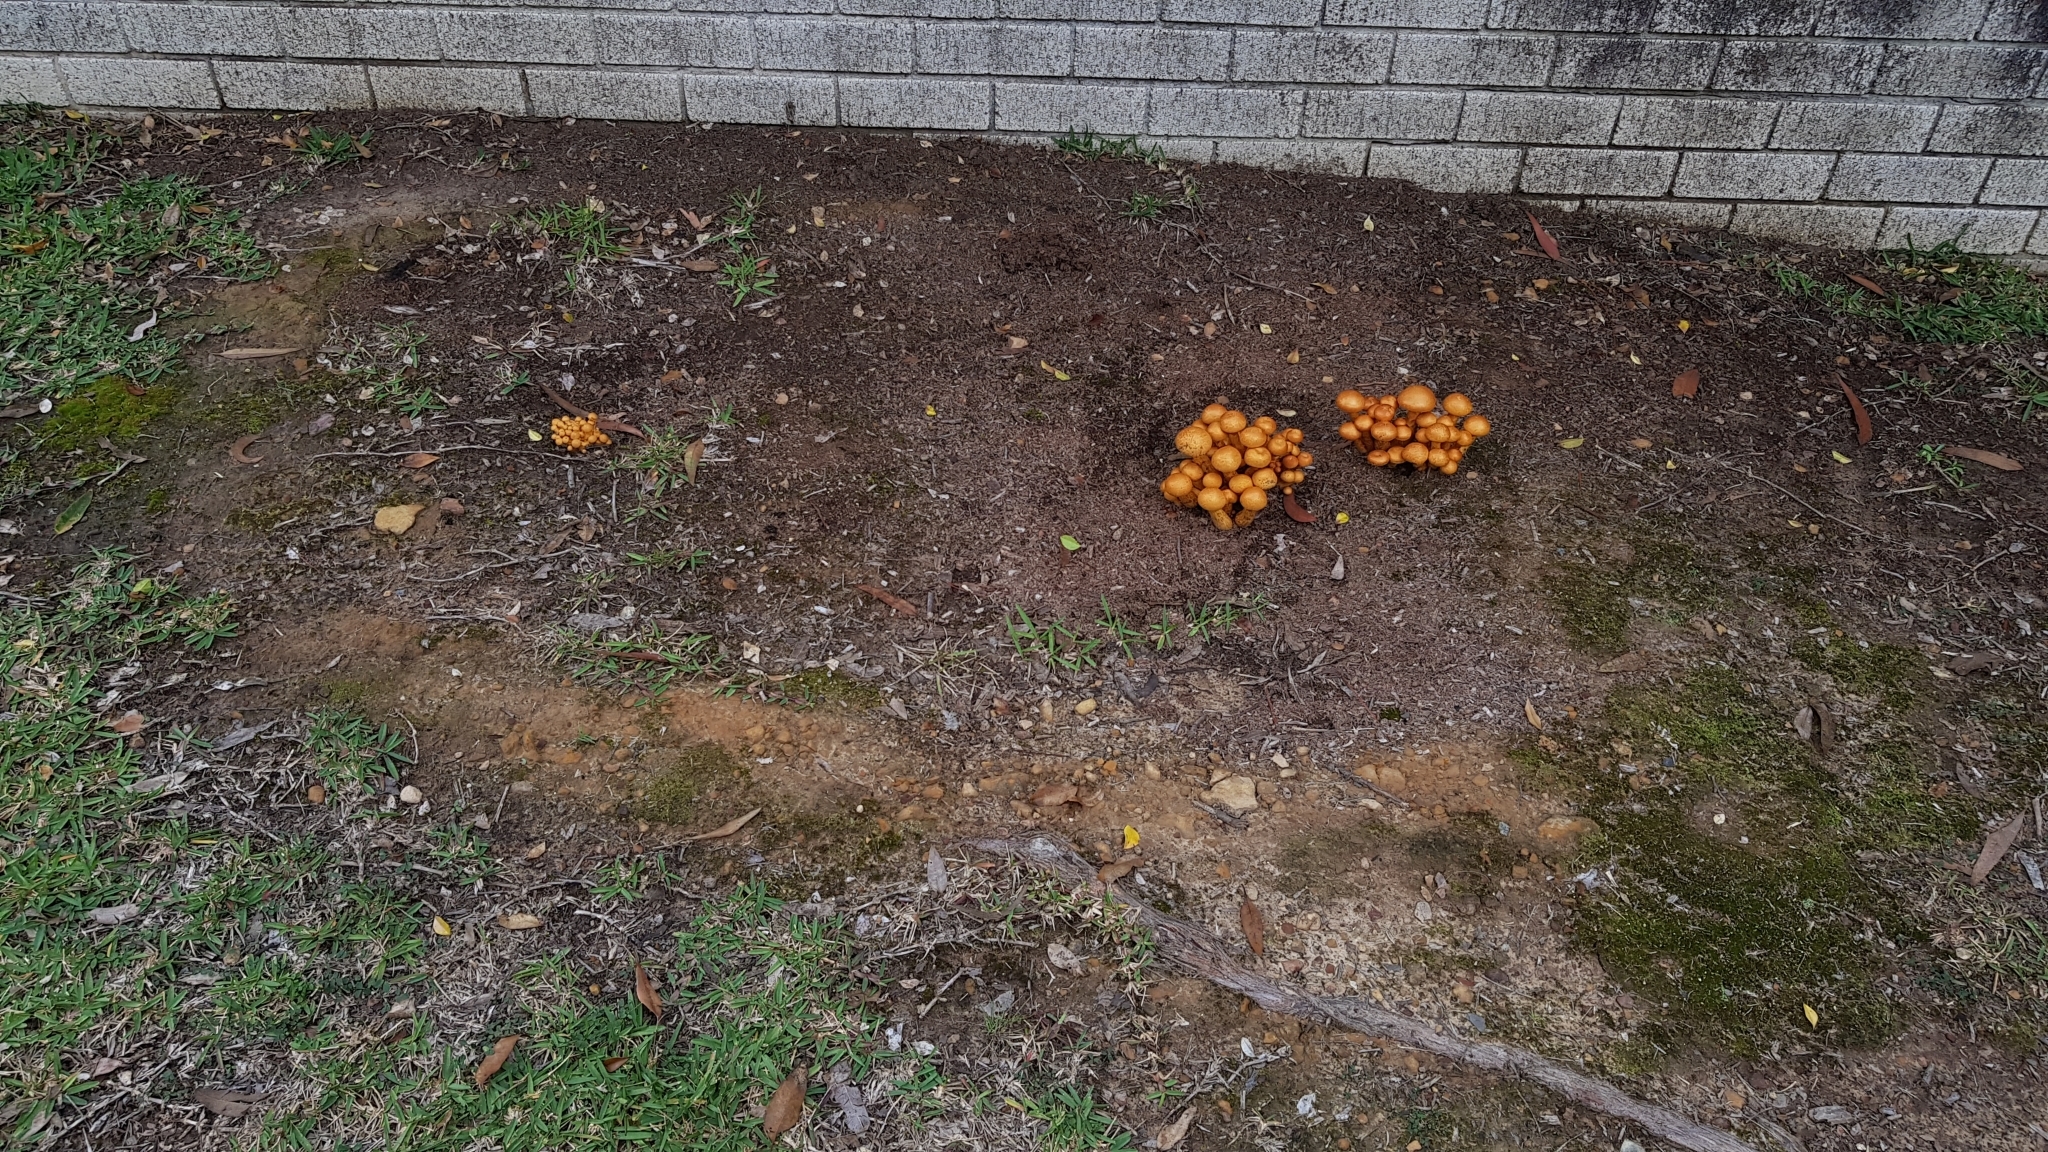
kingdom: Fungi
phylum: Basidiomycota
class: Agaricomycetes
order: Agaricales
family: Hymenogastraceae
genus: Gymnopilus
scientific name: Gymnopilus junonius
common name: Spectacular rustgill
